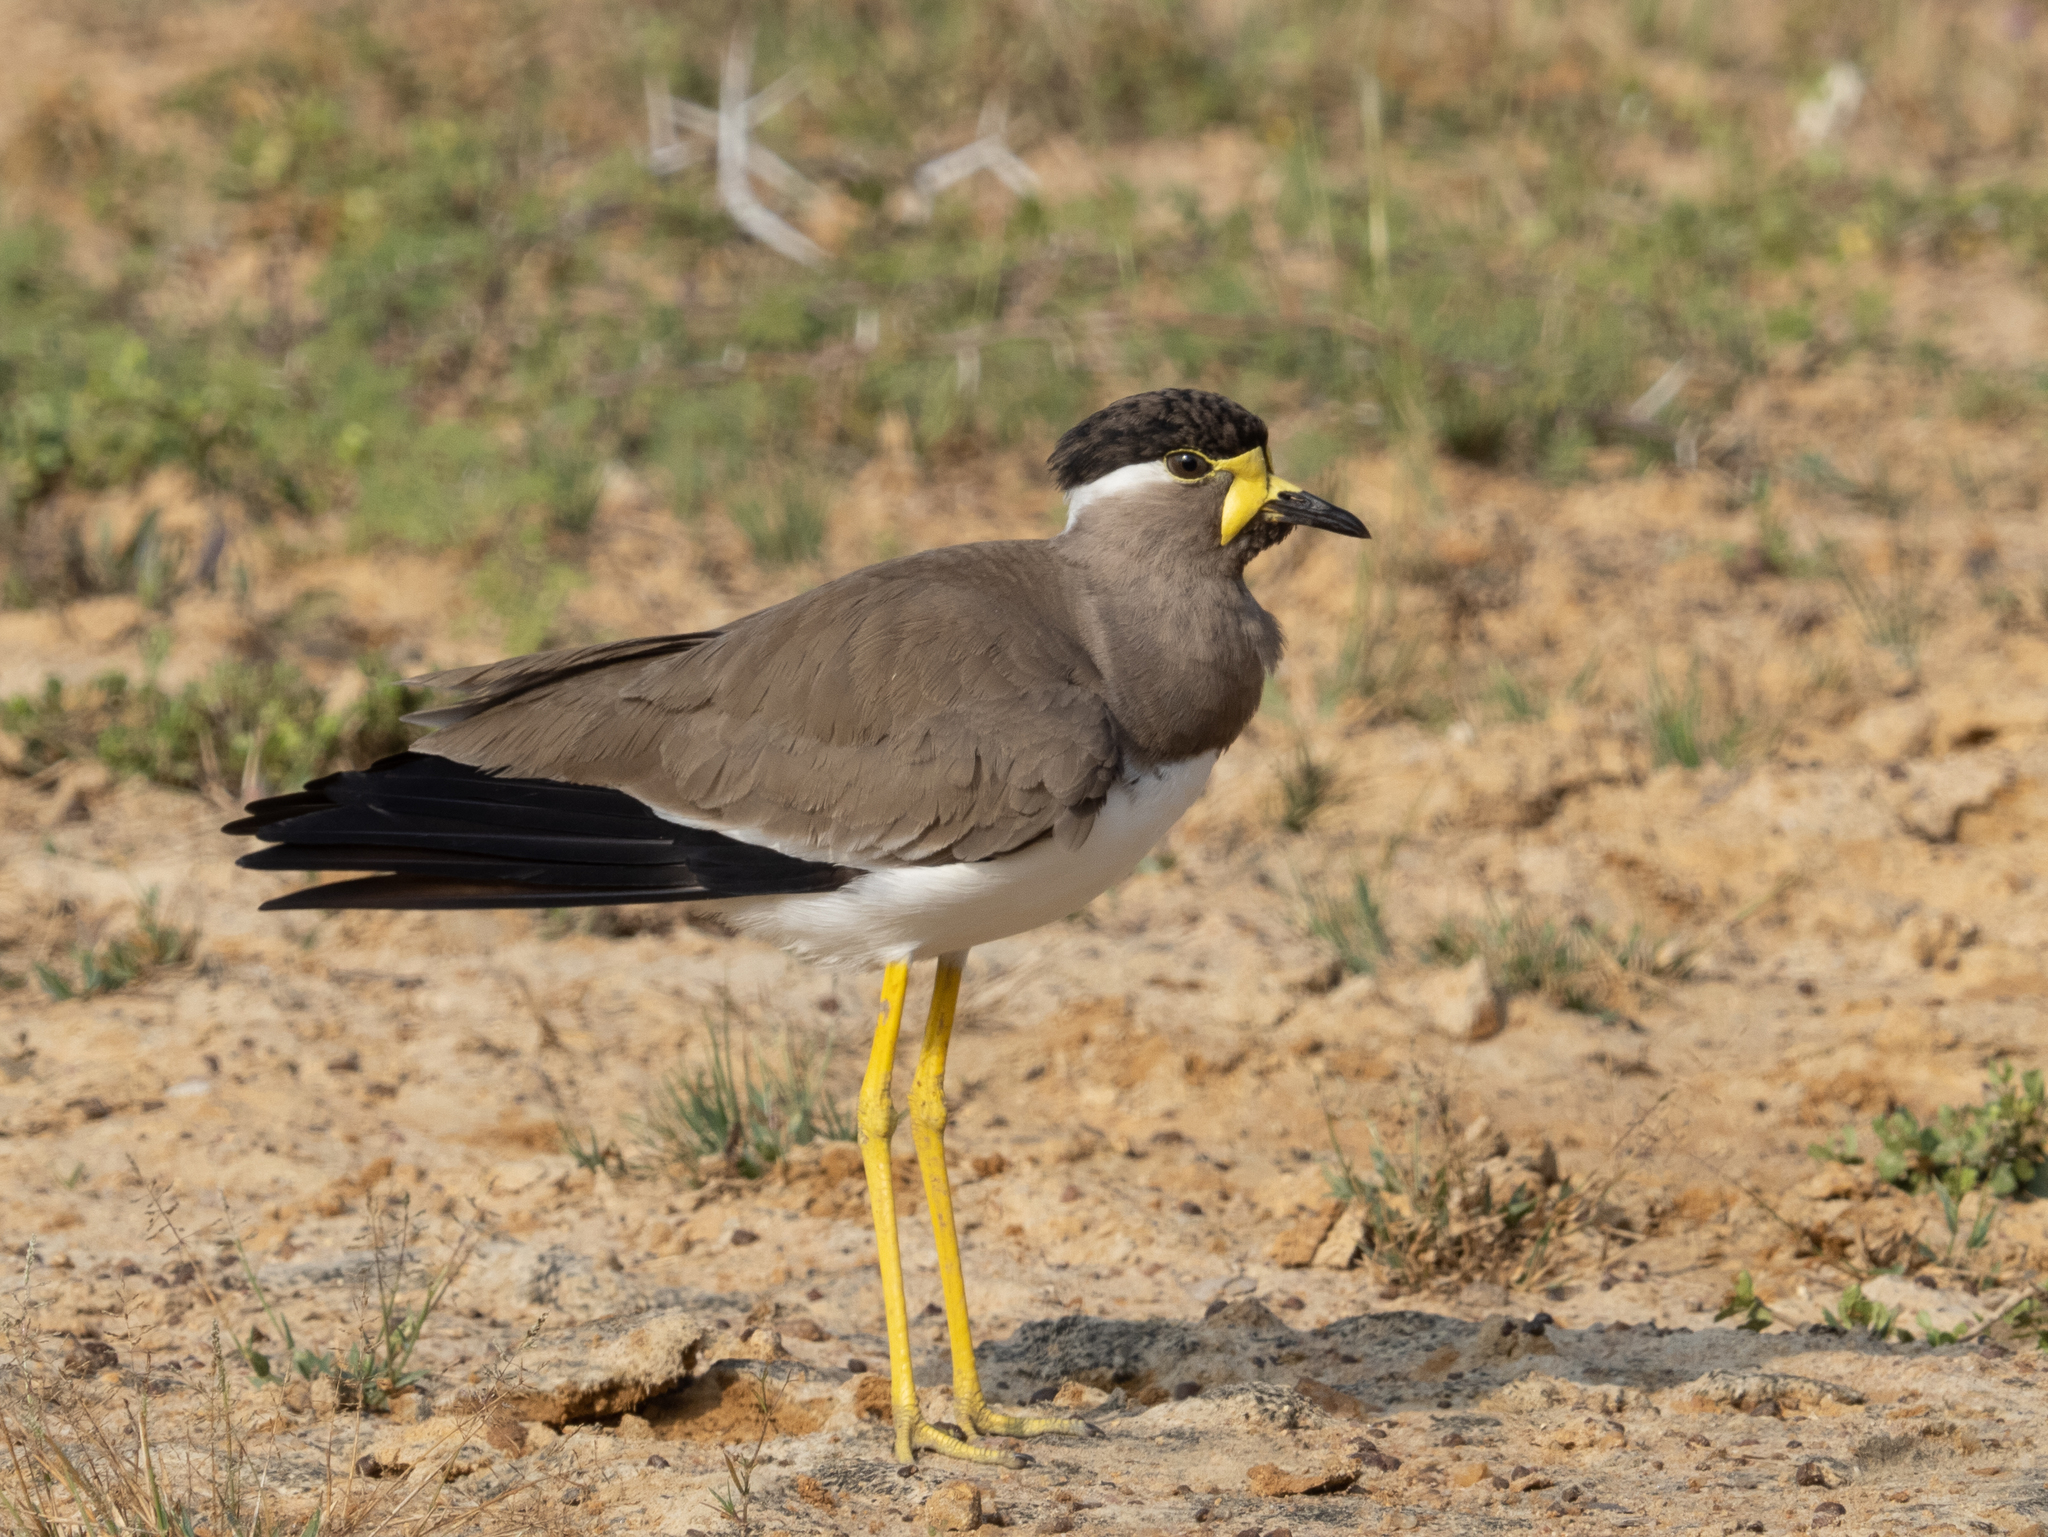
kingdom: Animalia
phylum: Chordata
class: Aves
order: Charadriiformes
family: Charadriidae
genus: Vanellus
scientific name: Vanellus malabaricus
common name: Yellow-wattled lapwing
